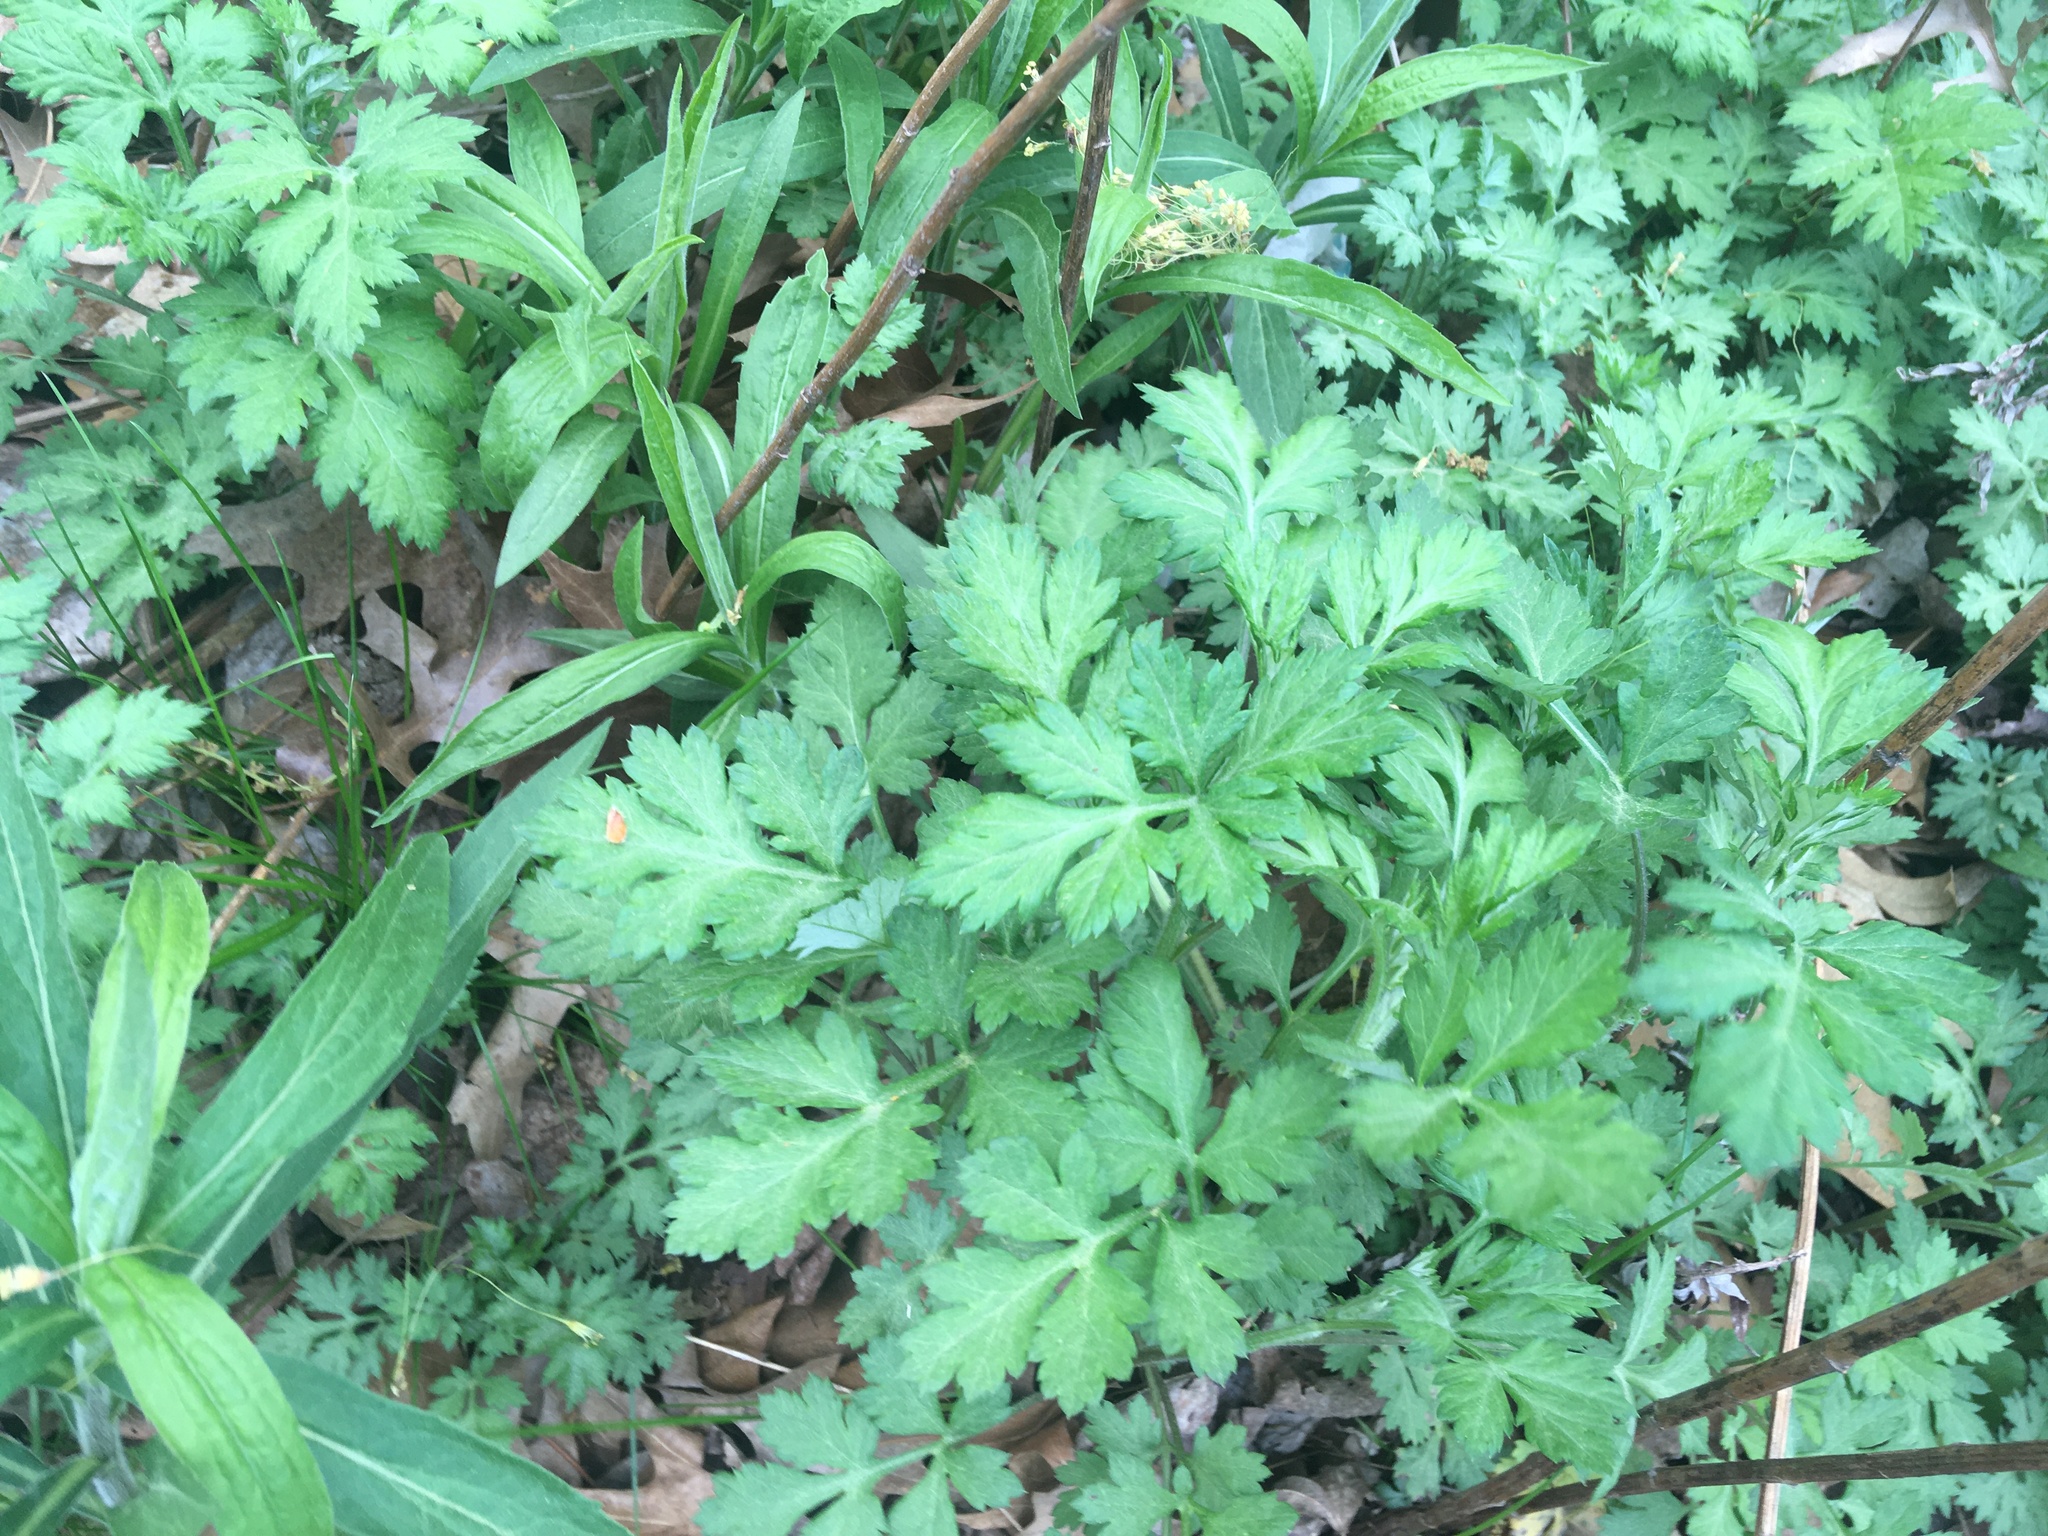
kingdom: Plantae
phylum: Tracheophyta
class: Magnoliopsida
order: Asterales
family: Asteraceae
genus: Artemisia
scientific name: Artemisia vulgaris
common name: Mugwort
